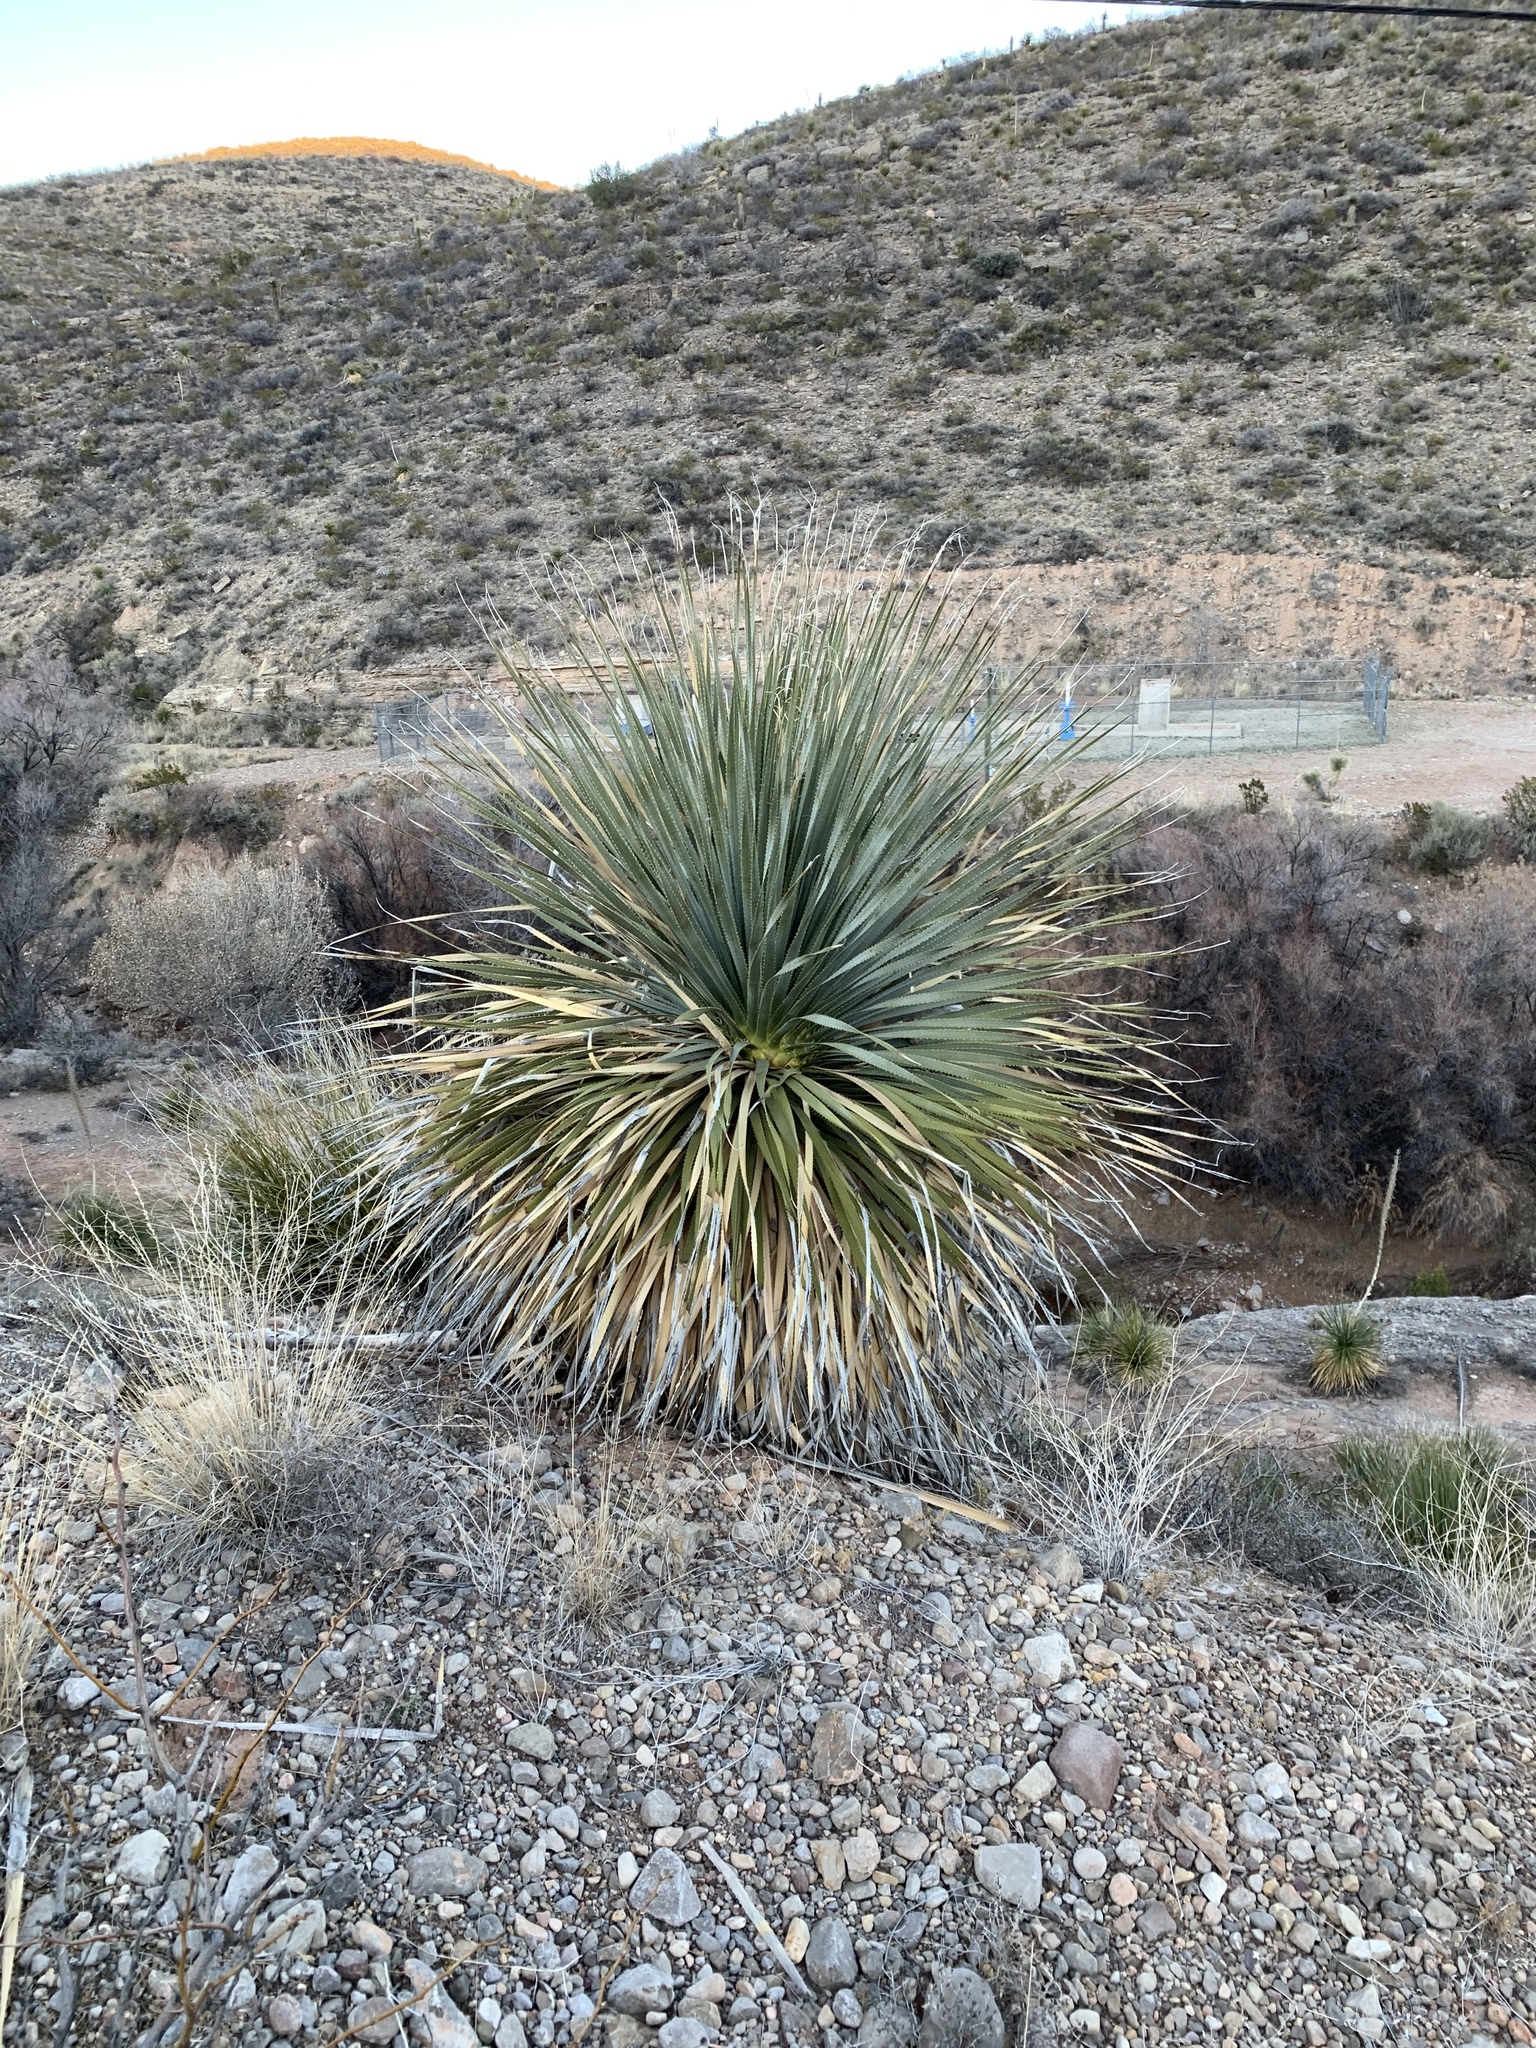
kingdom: Plantae
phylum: Tracheophyta
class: Liliopsida
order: Asparagales
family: Asparagaceae
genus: Dasylirion
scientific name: Dasylirion wheeleri
